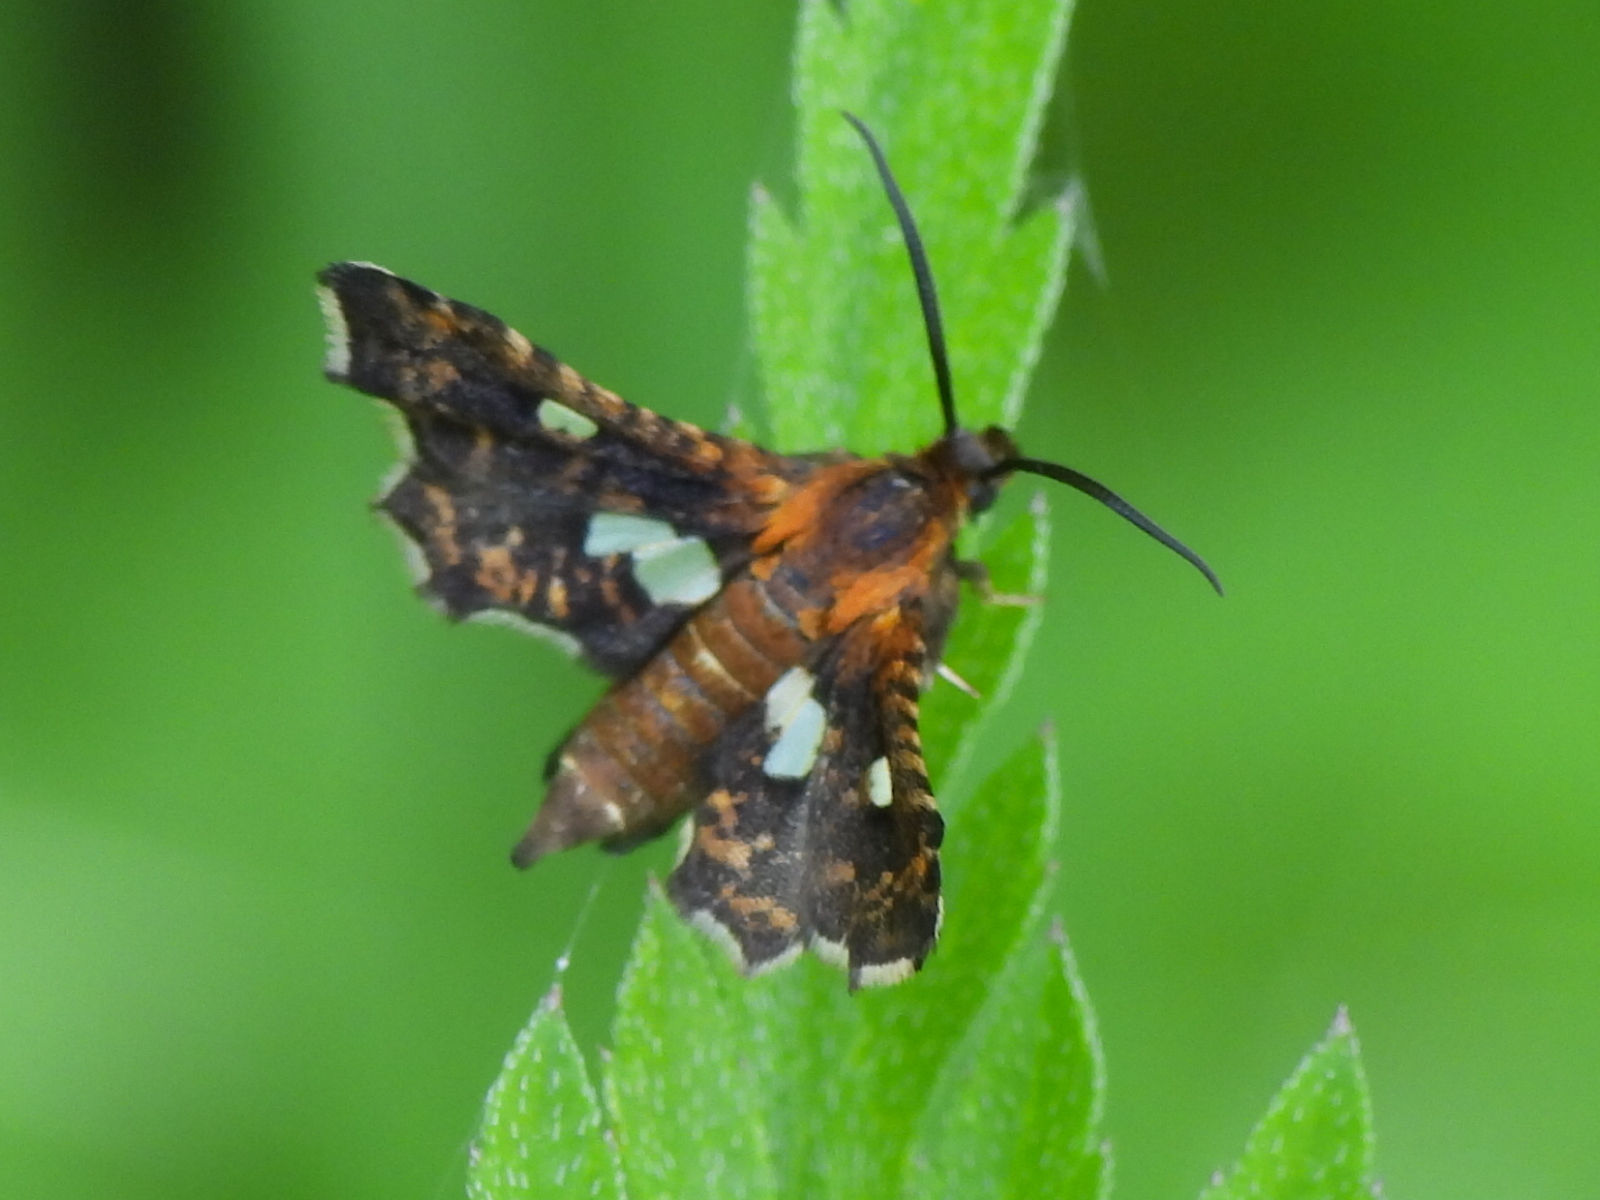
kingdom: Animalia
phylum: Arthropoda
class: Insecta
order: Lepidoptera
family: Thyrididae
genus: Thyris
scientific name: Thyris maculata
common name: Spotted thyris moth
